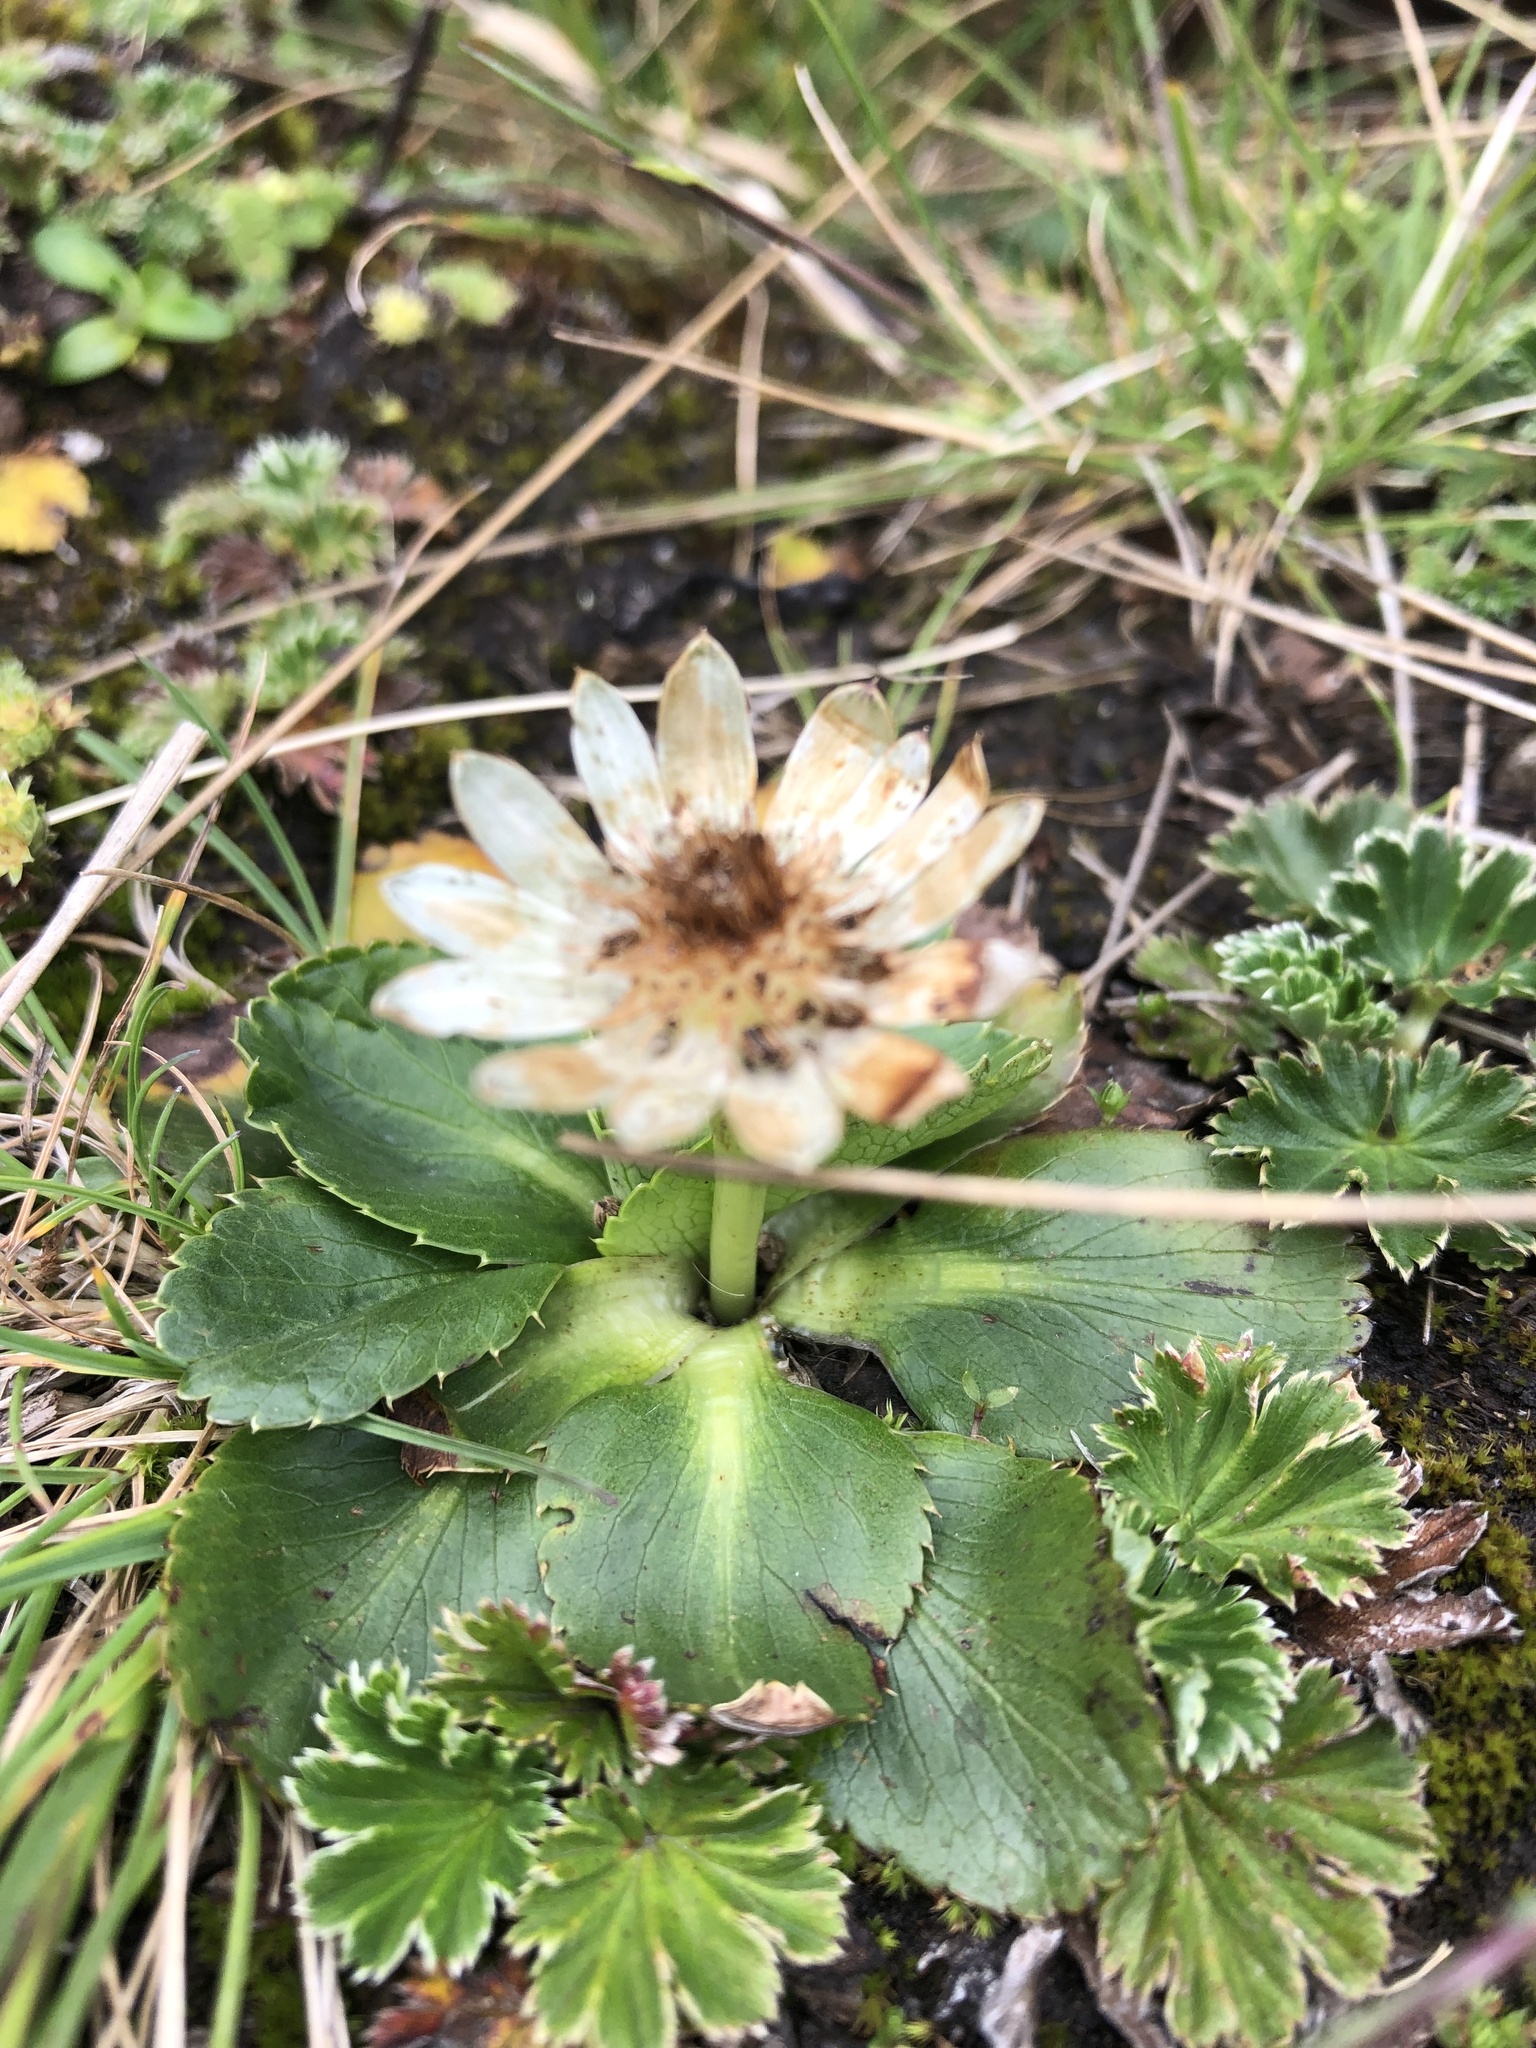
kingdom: Plantae
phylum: Tracheophyta
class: Magnoliopsida
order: Apiales
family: Apiaceae
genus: Eryngium
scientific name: Eryngium humile
